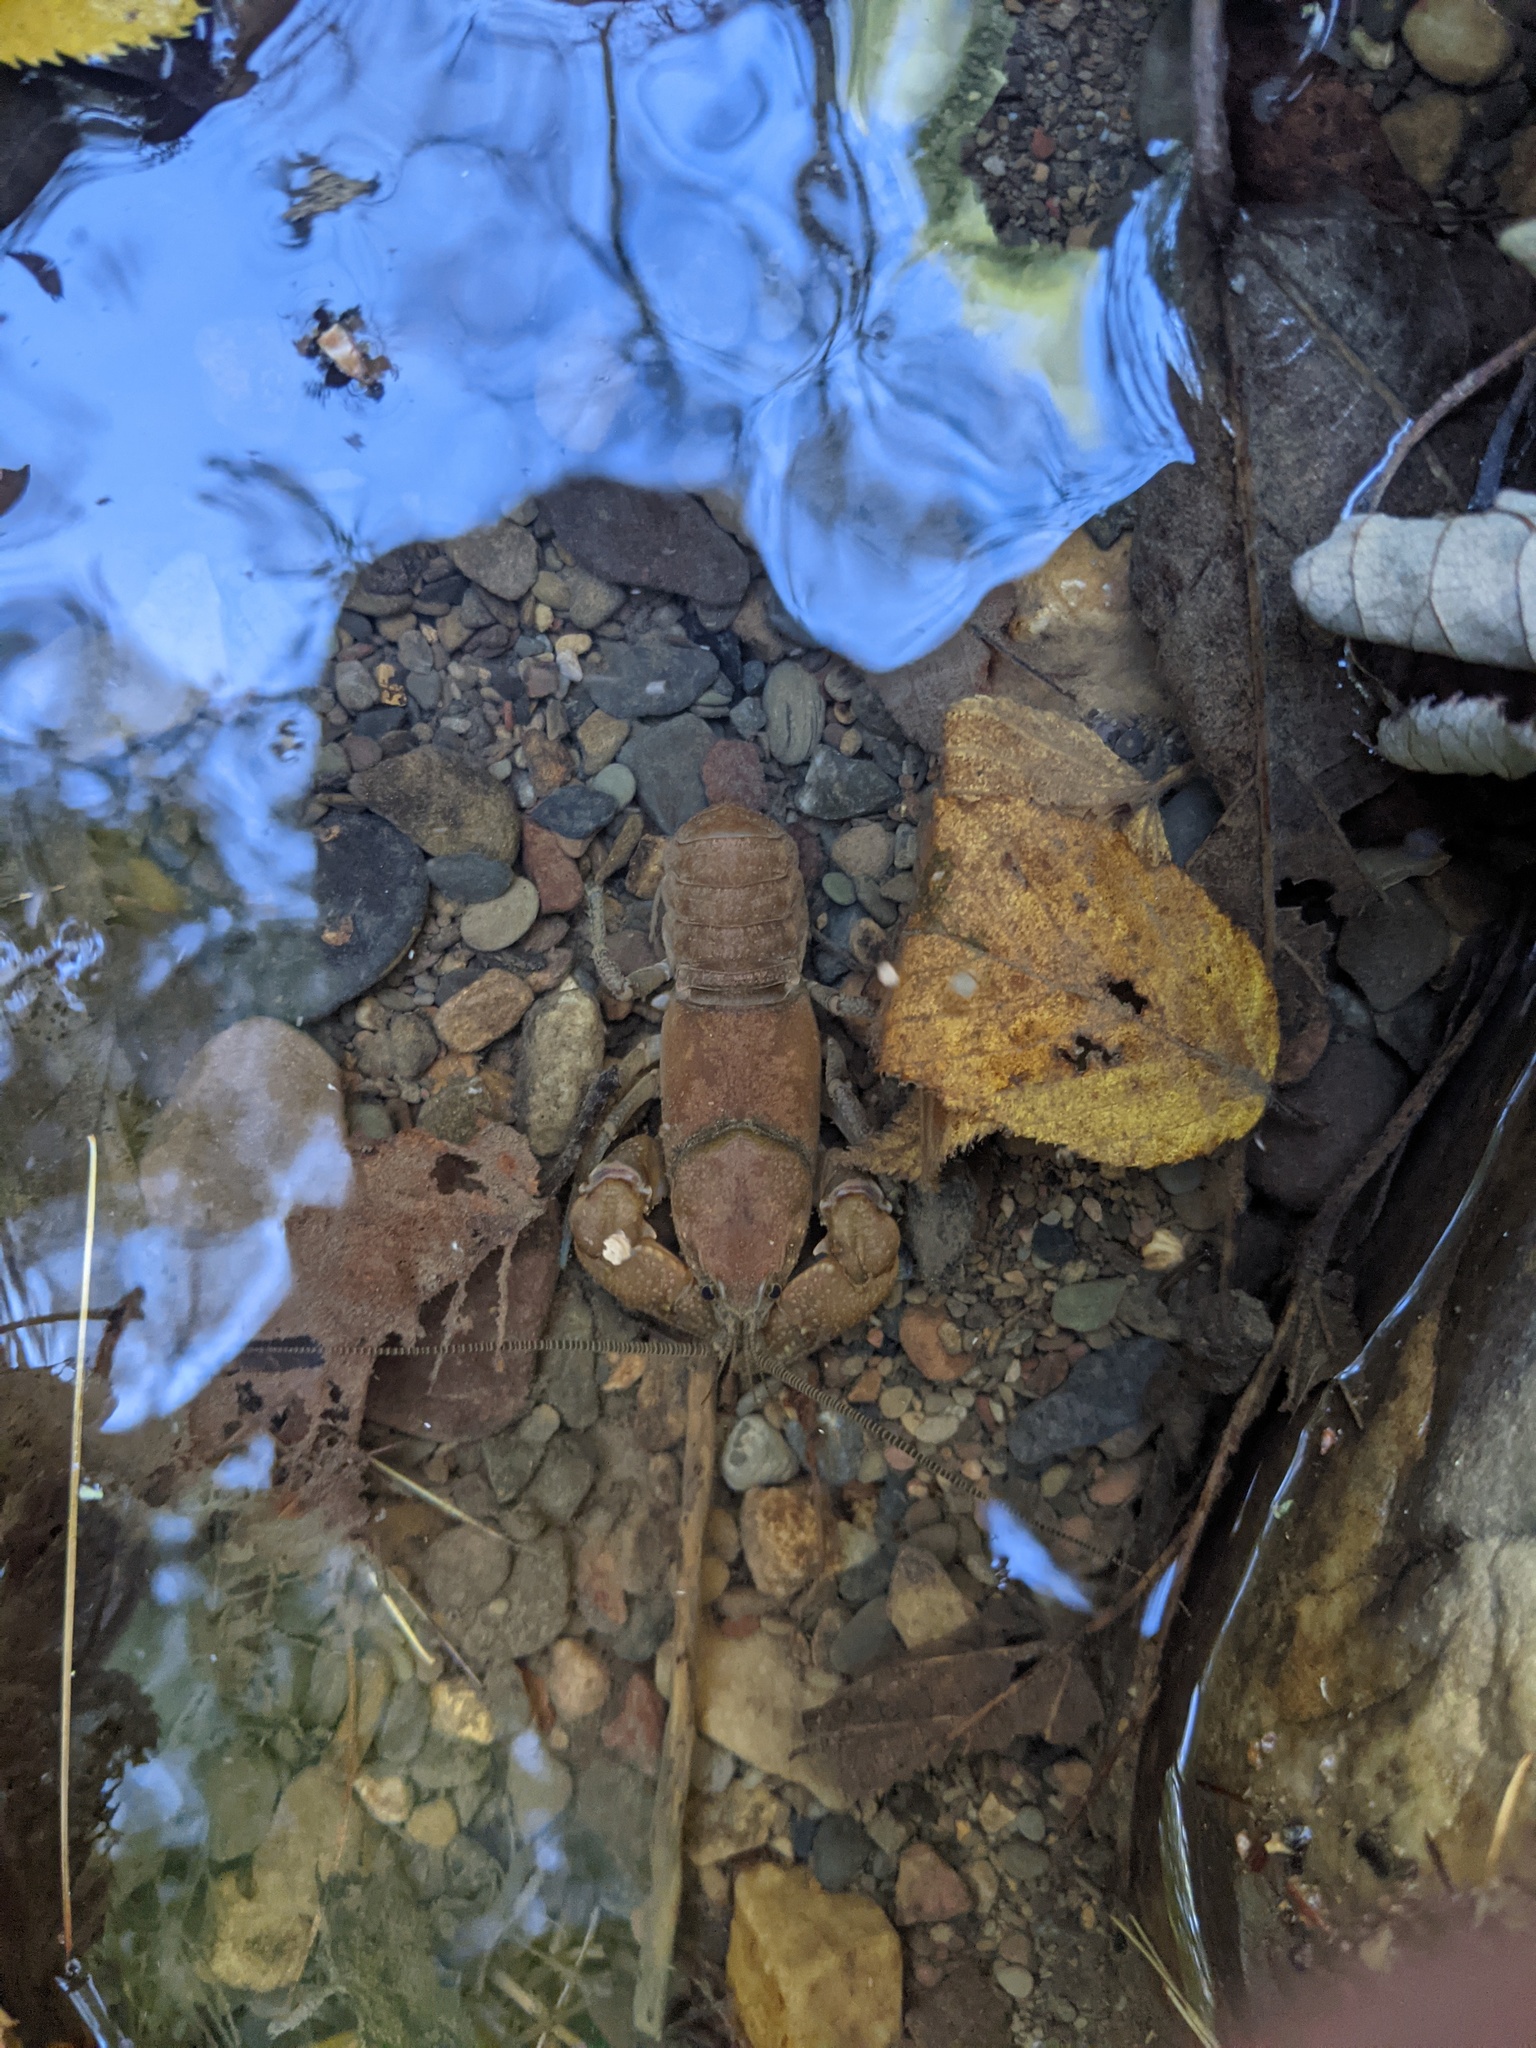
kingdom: Animalia
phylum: Arthropoda
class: Malacostraca
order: Decapoda
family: Cambaridae
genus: Cambarus
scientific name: Cambarus bartonii
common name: Appalachian brook crayfish
